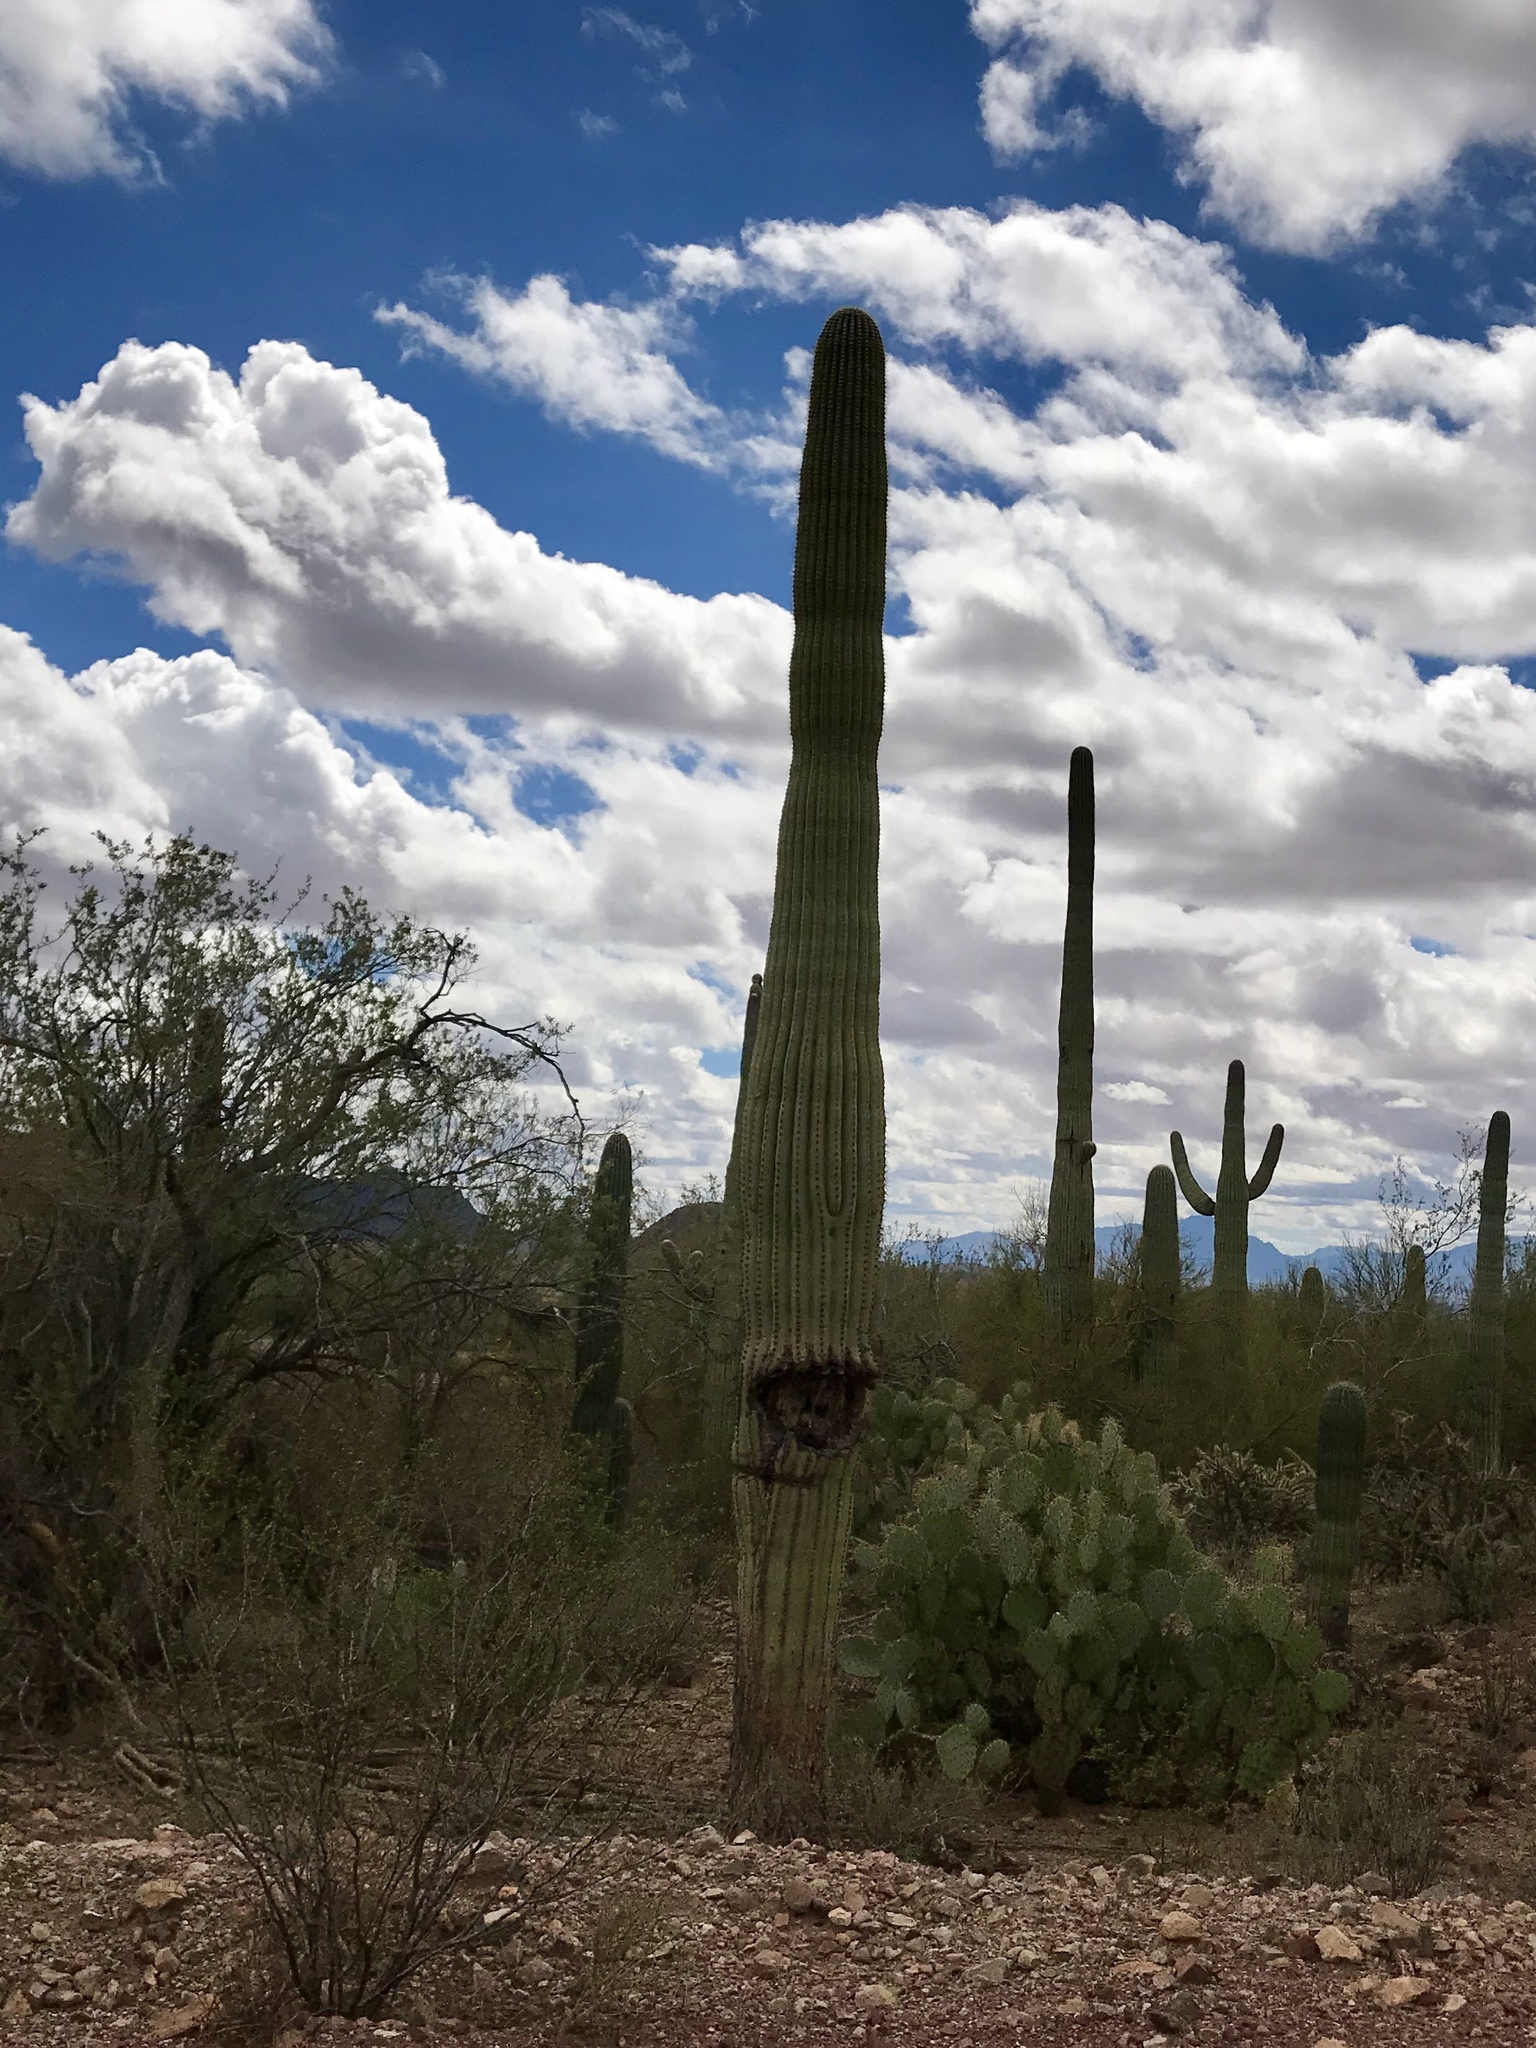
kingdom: Plantae
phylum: Tracheophyta
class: Magnoliopsida
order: Caryophyllales
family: Cactaceae
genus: Carnegiea
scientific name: Carnegiea gigantea
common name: Saguaro
